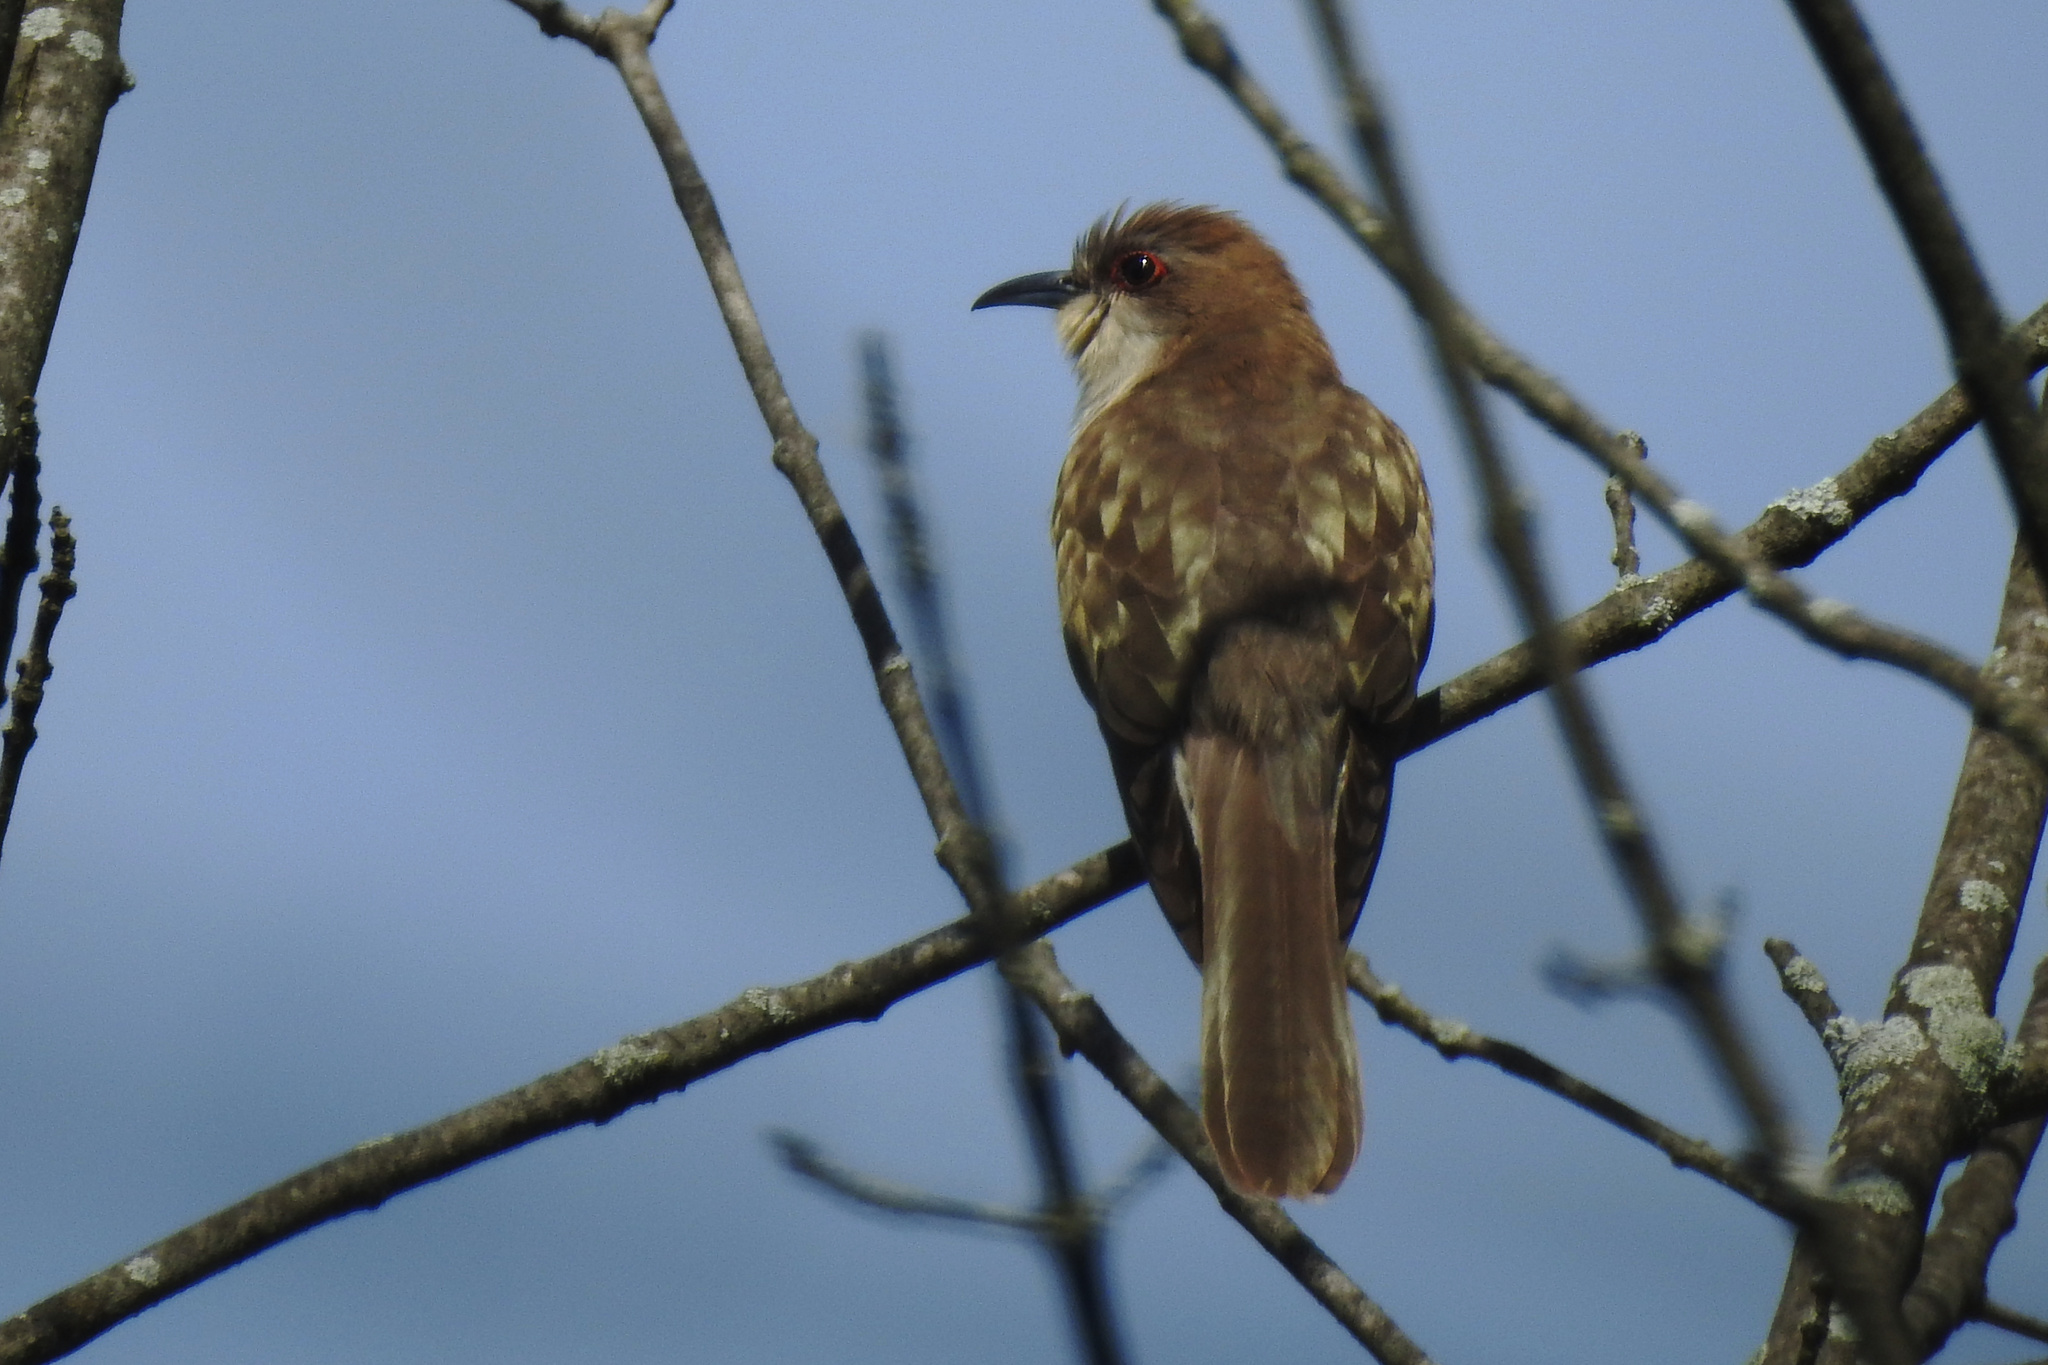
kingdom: Animalia
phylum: Chordata
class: Aves
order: Cuculiformes
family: Cuculidae
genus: Coccyzus
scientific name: Coccyzus erythropthalmus
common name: Black-billed cuckoo
